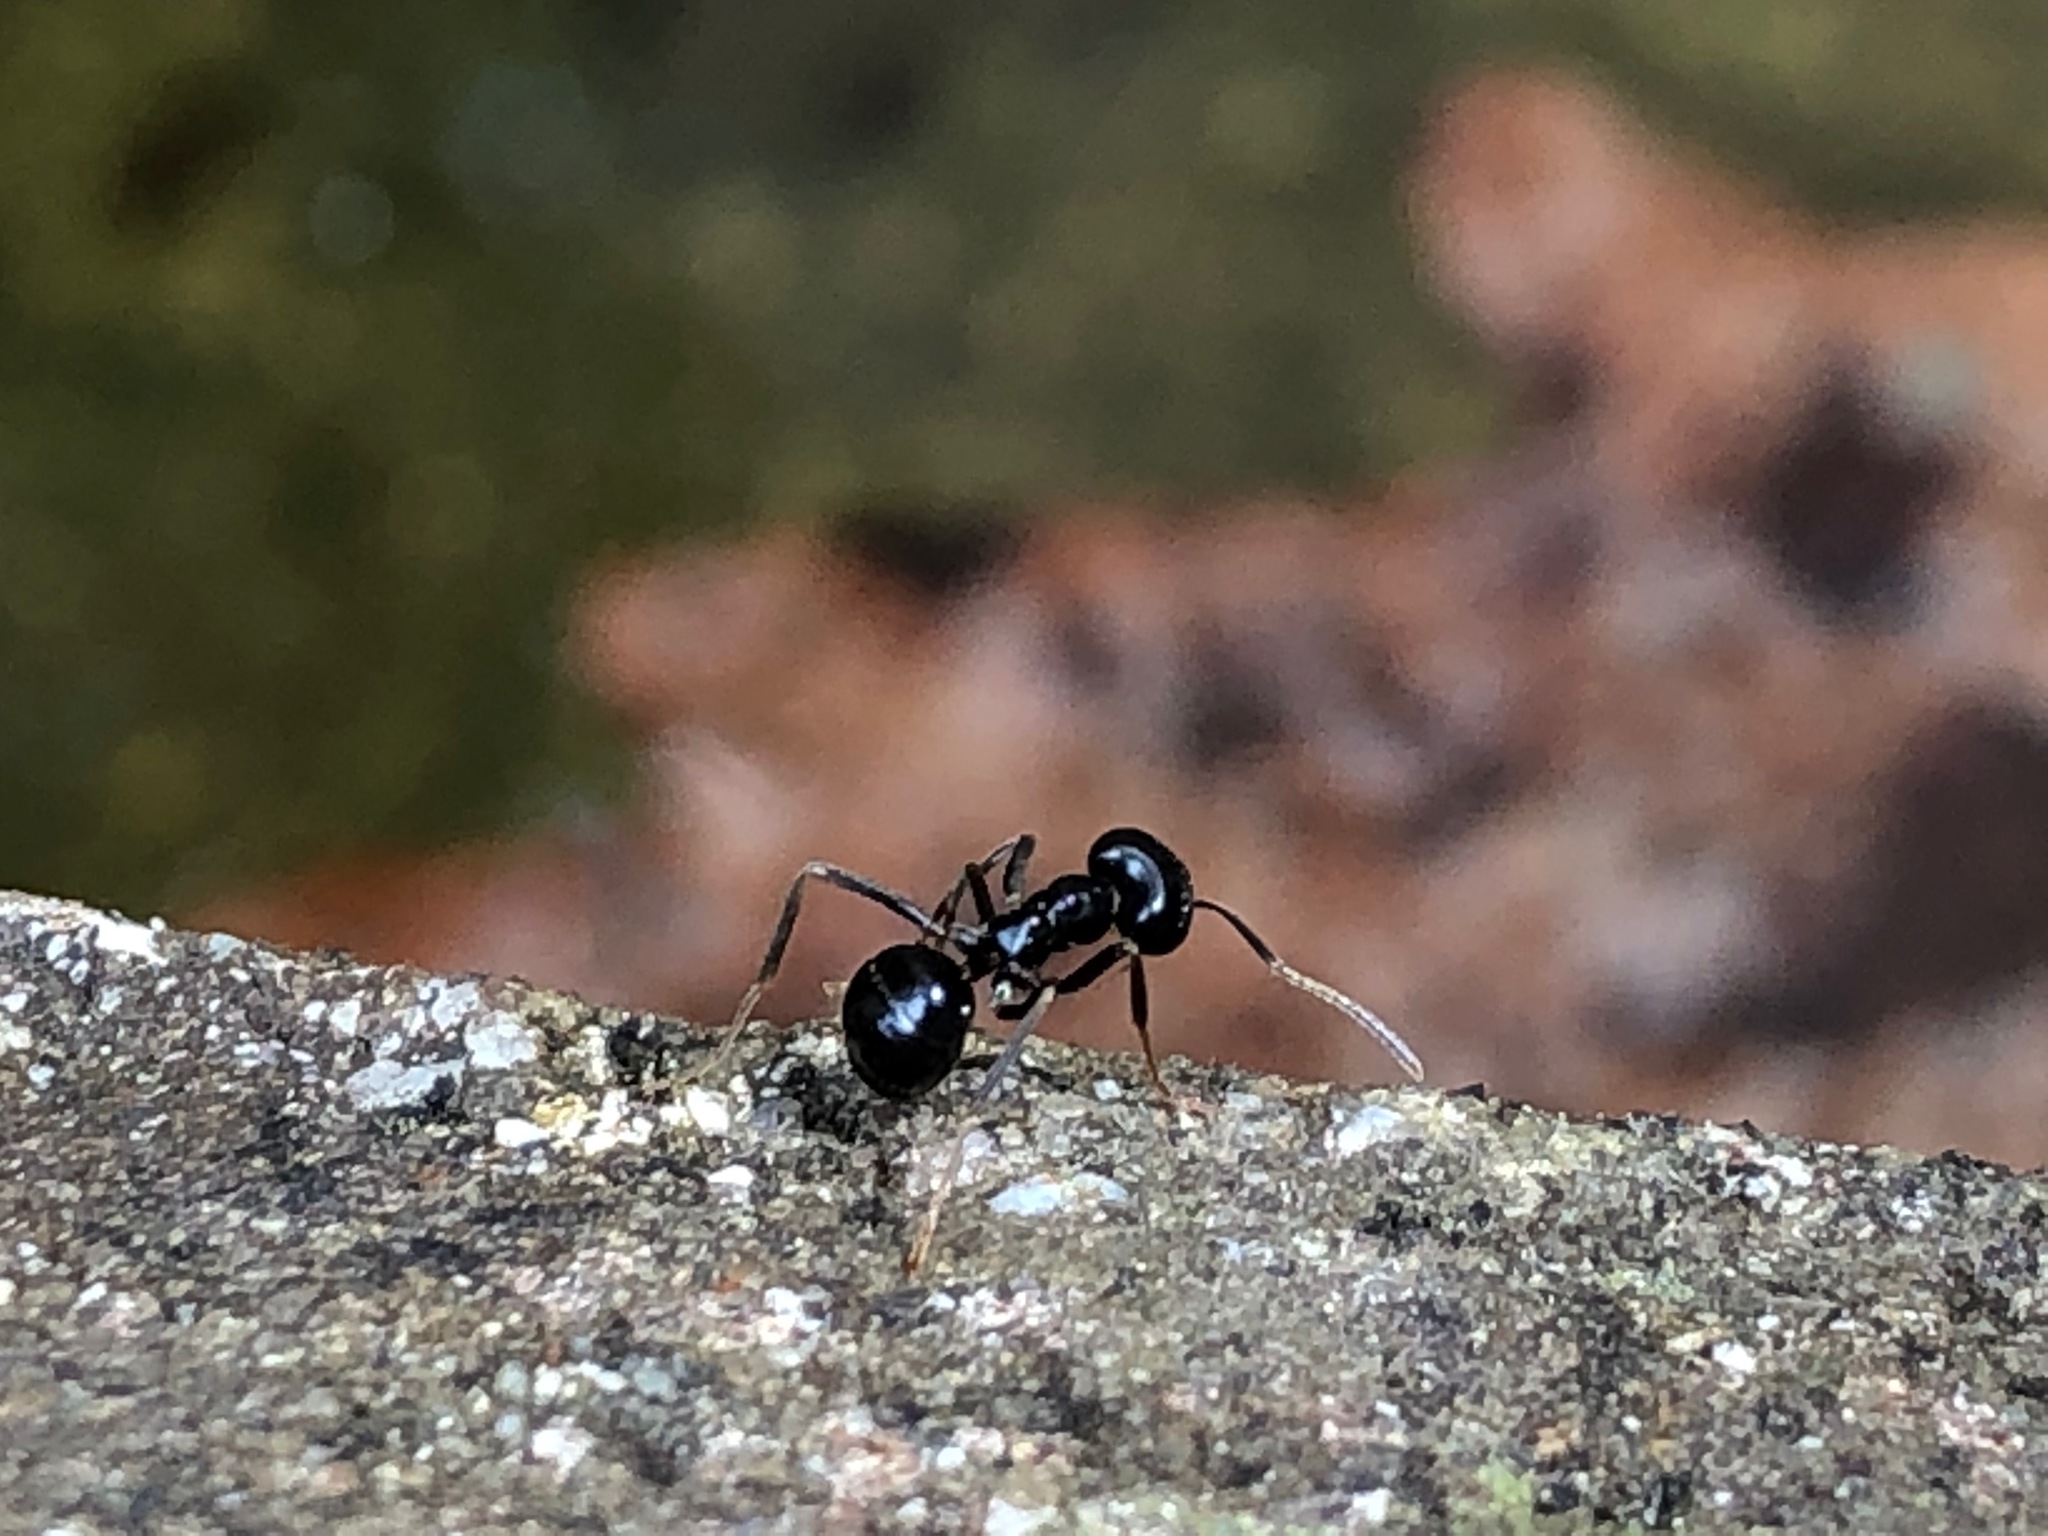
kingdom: Animalia
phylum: Arthropoda
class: Insecta
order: Hymenoptera
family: Formicidae
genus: Lasius
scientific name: Lasius fuliginosus
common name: Jet ant
